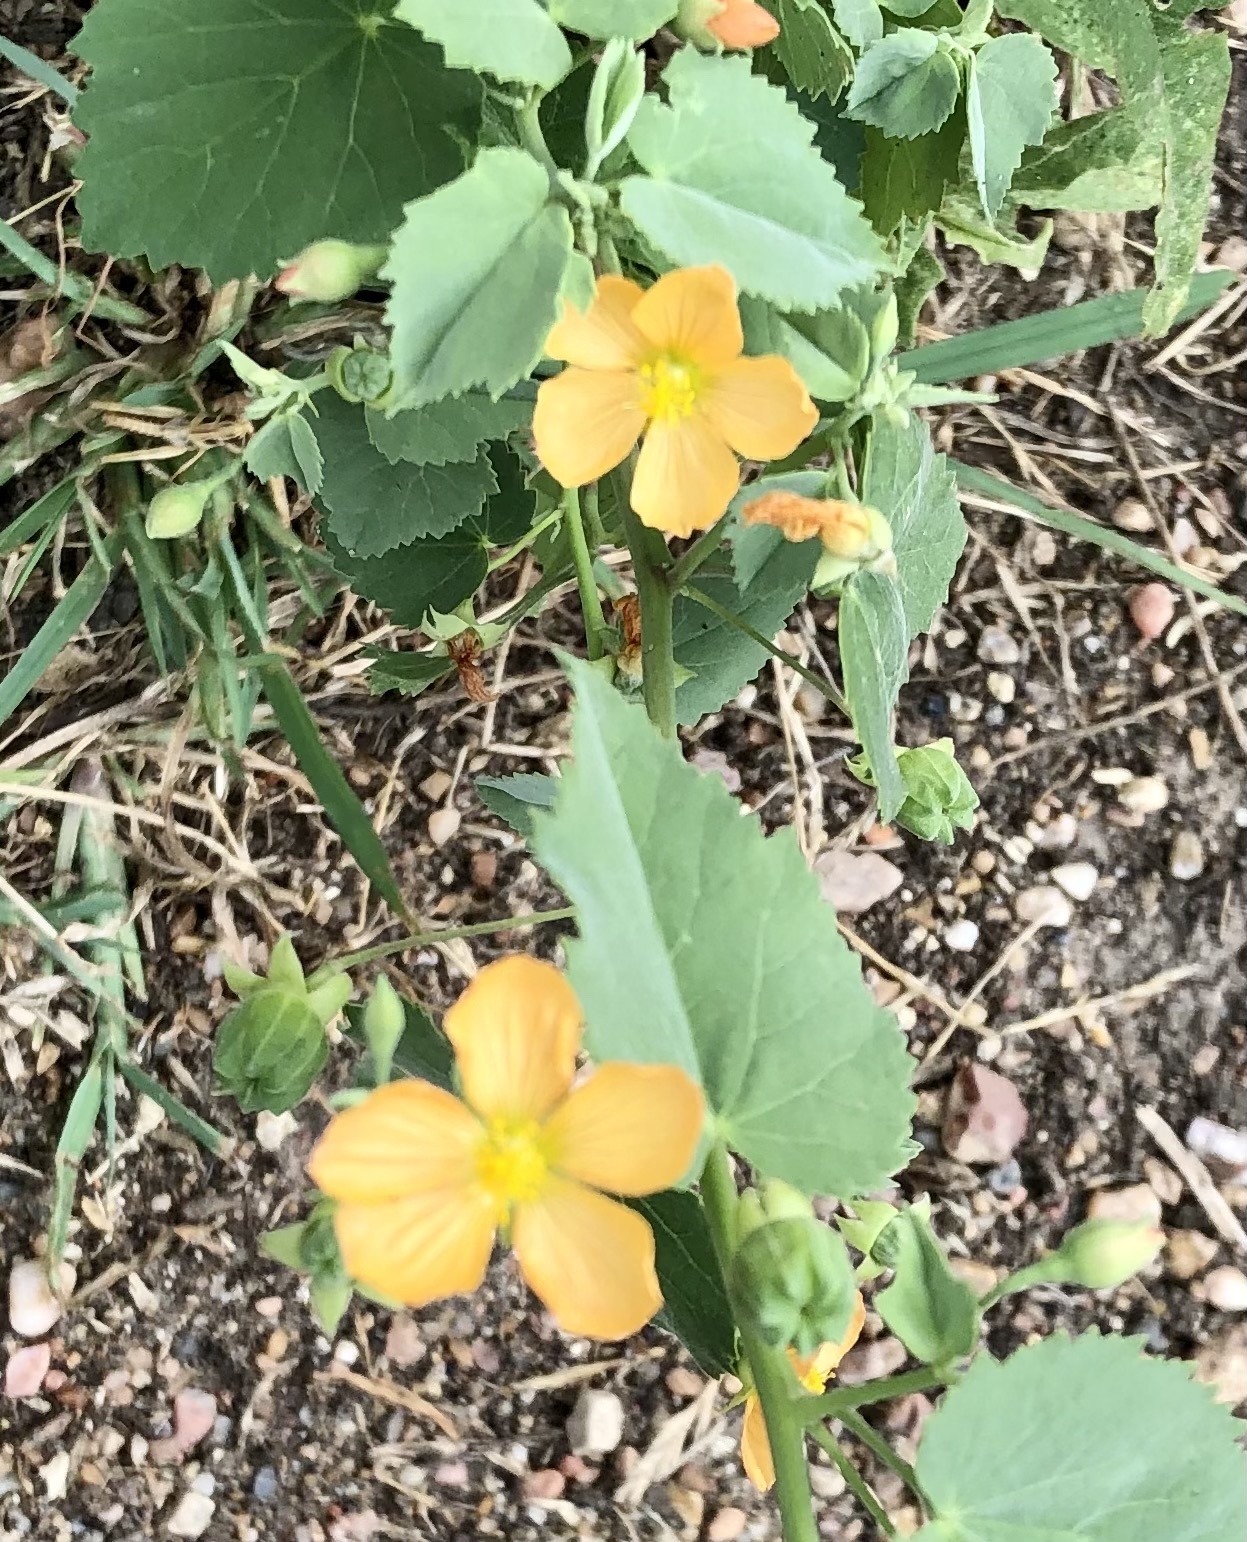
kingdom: Plantae
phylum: Tracheophyta
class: Magnoliopsida
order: Malvales
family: Malvaceae
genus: Abutilon
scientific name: Abutilon fruticosum
